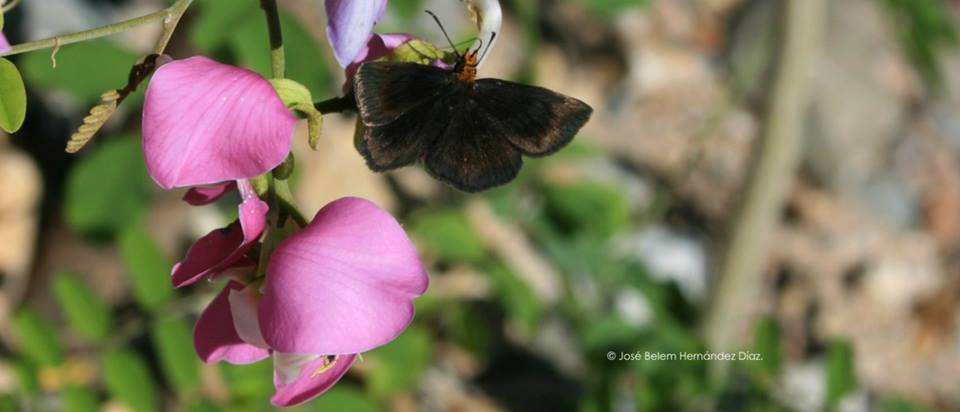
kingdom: Animalia
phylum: Arthropoda
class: Insecta
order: Lepidoptera
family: Hesperiidae
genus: Staphylus
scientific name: Staphylus ceos
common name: Golden-headed scallopwing
